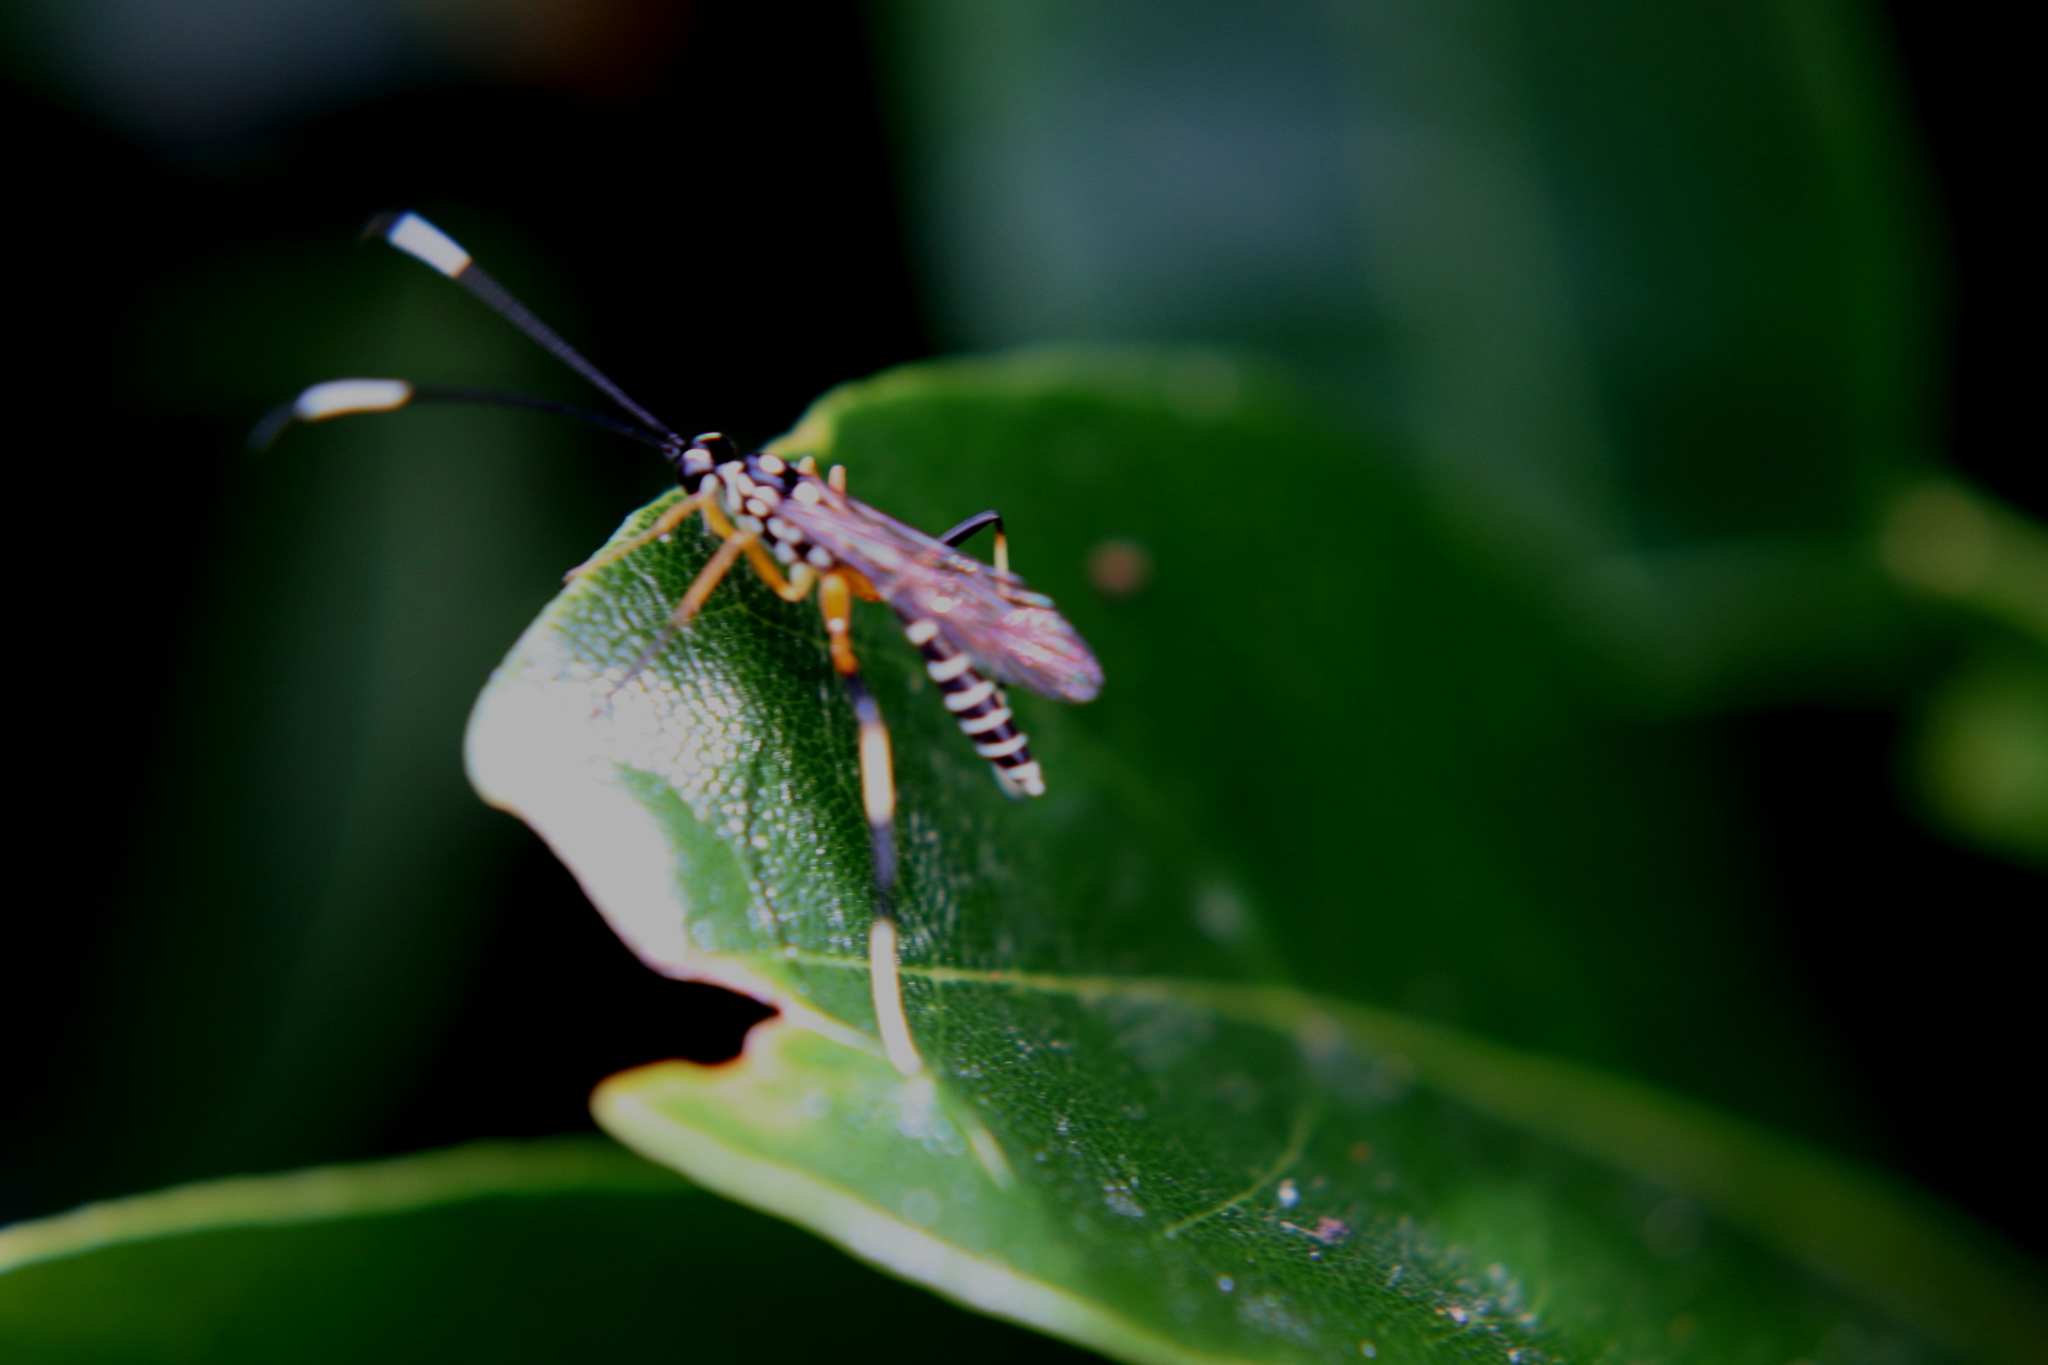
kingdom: Animalia
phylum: Arthropoda
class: Insecta
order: Hymenoptera
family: Ichneumonidae
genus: Xanthocryptus
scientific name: Xanthocryptus novozealandicus
